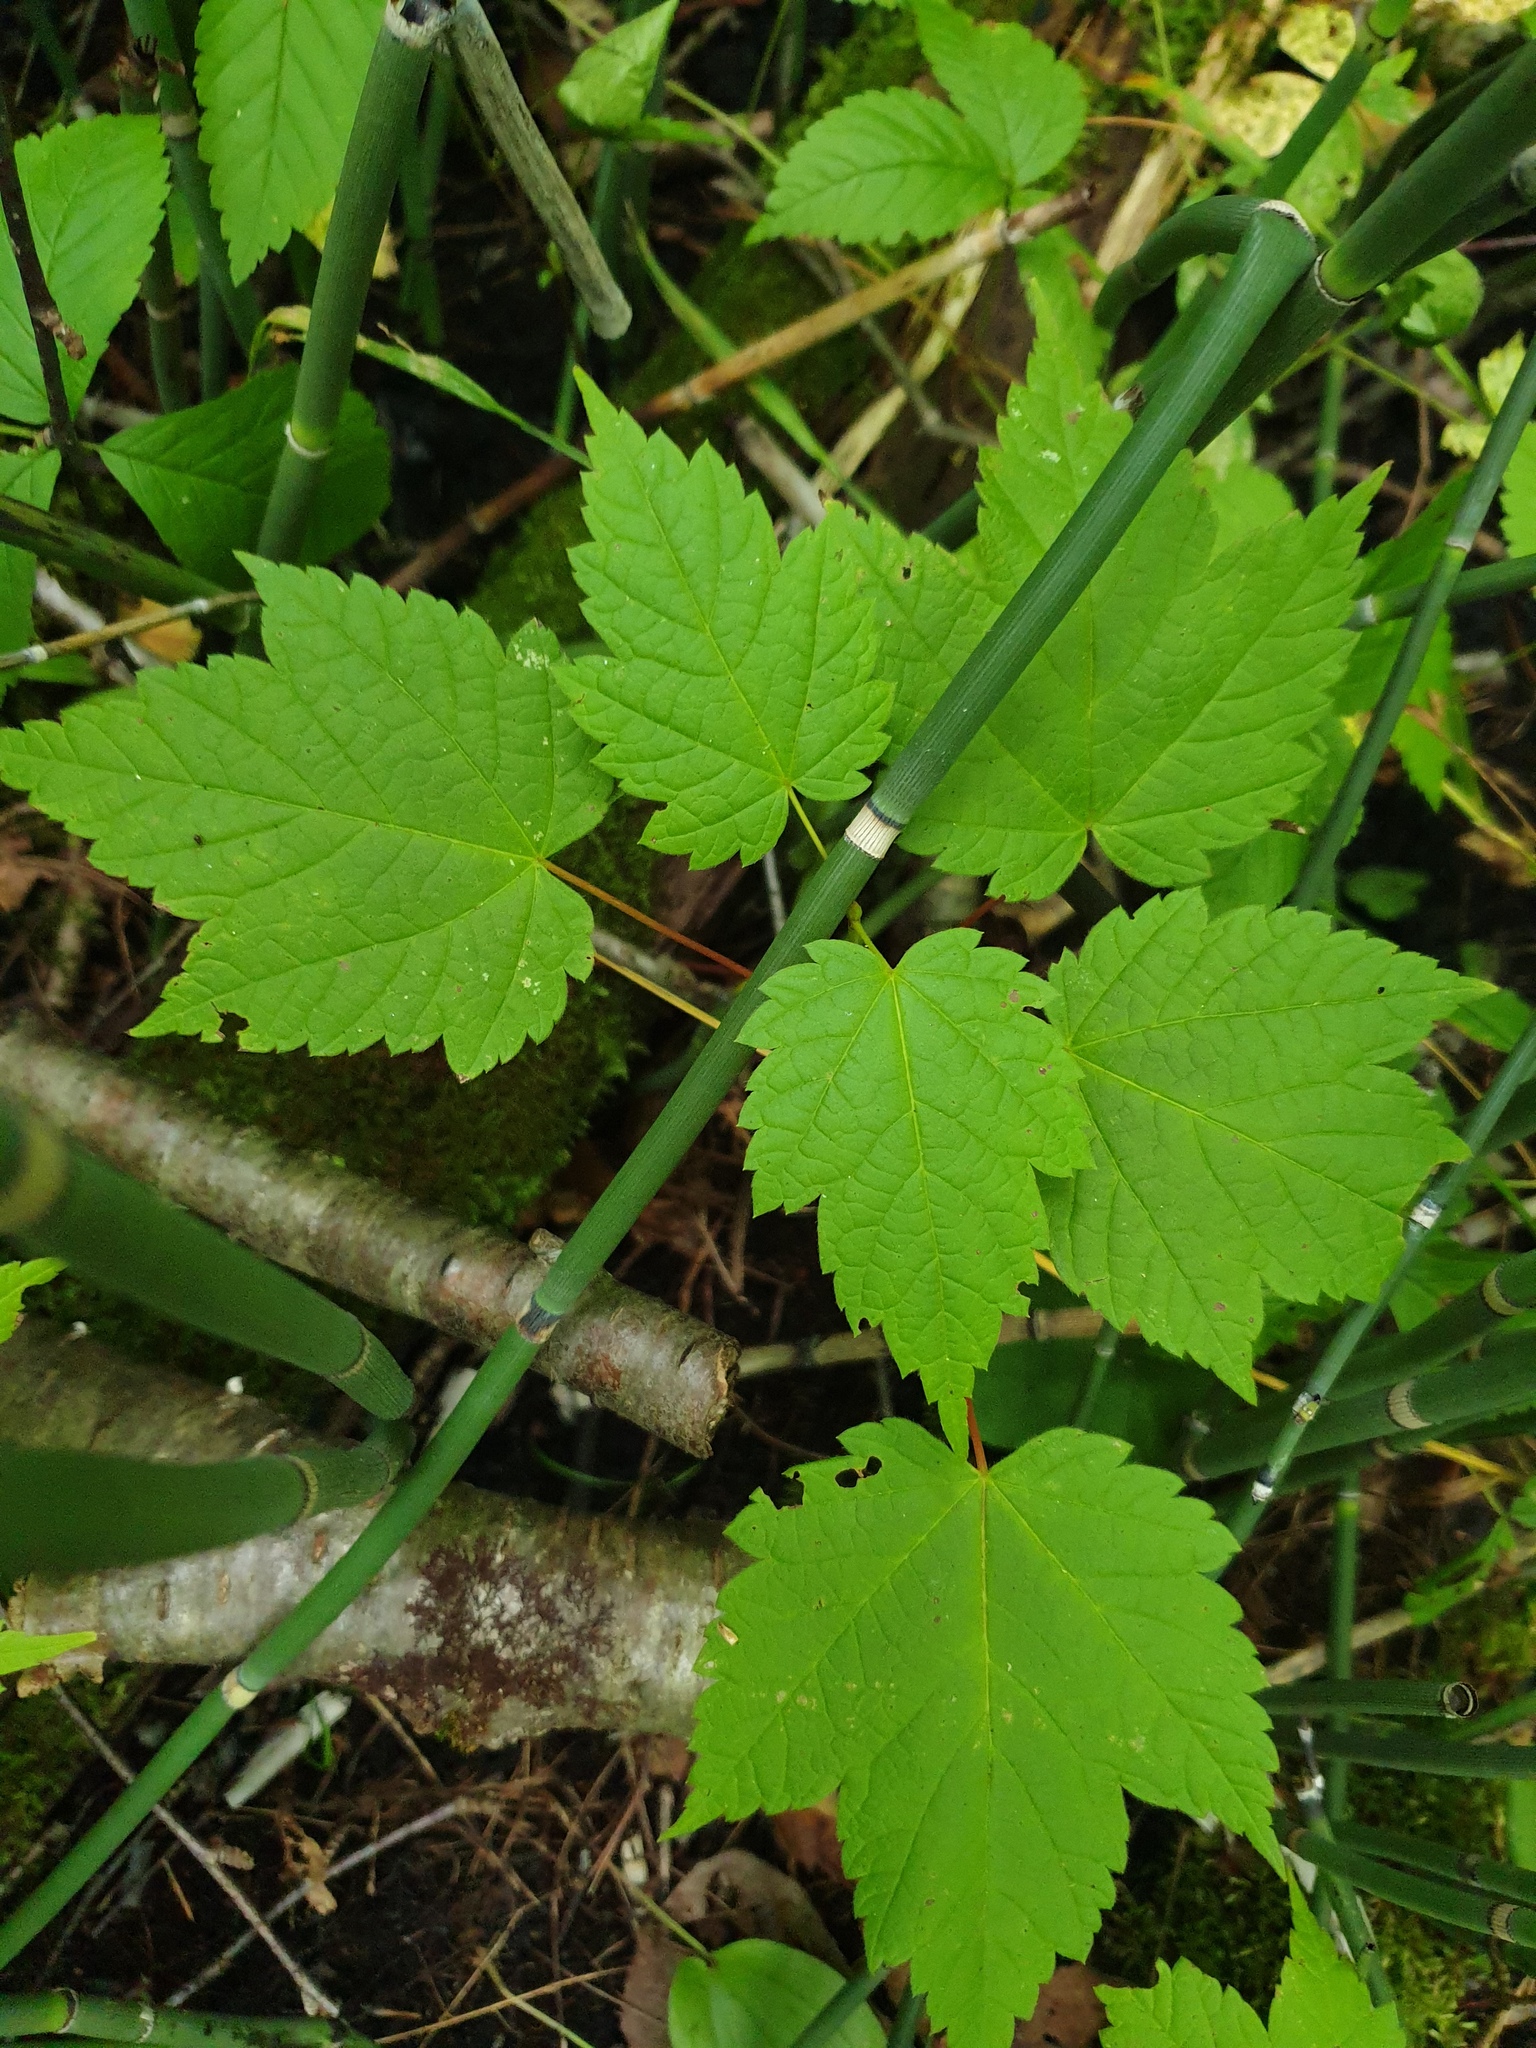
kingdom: Plantae
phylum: Tracheophyta
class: Magnoliopsida
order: Sapindales
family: Sapindaceae
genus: Acer
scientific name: Acer spicatum
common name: Mountain maple
